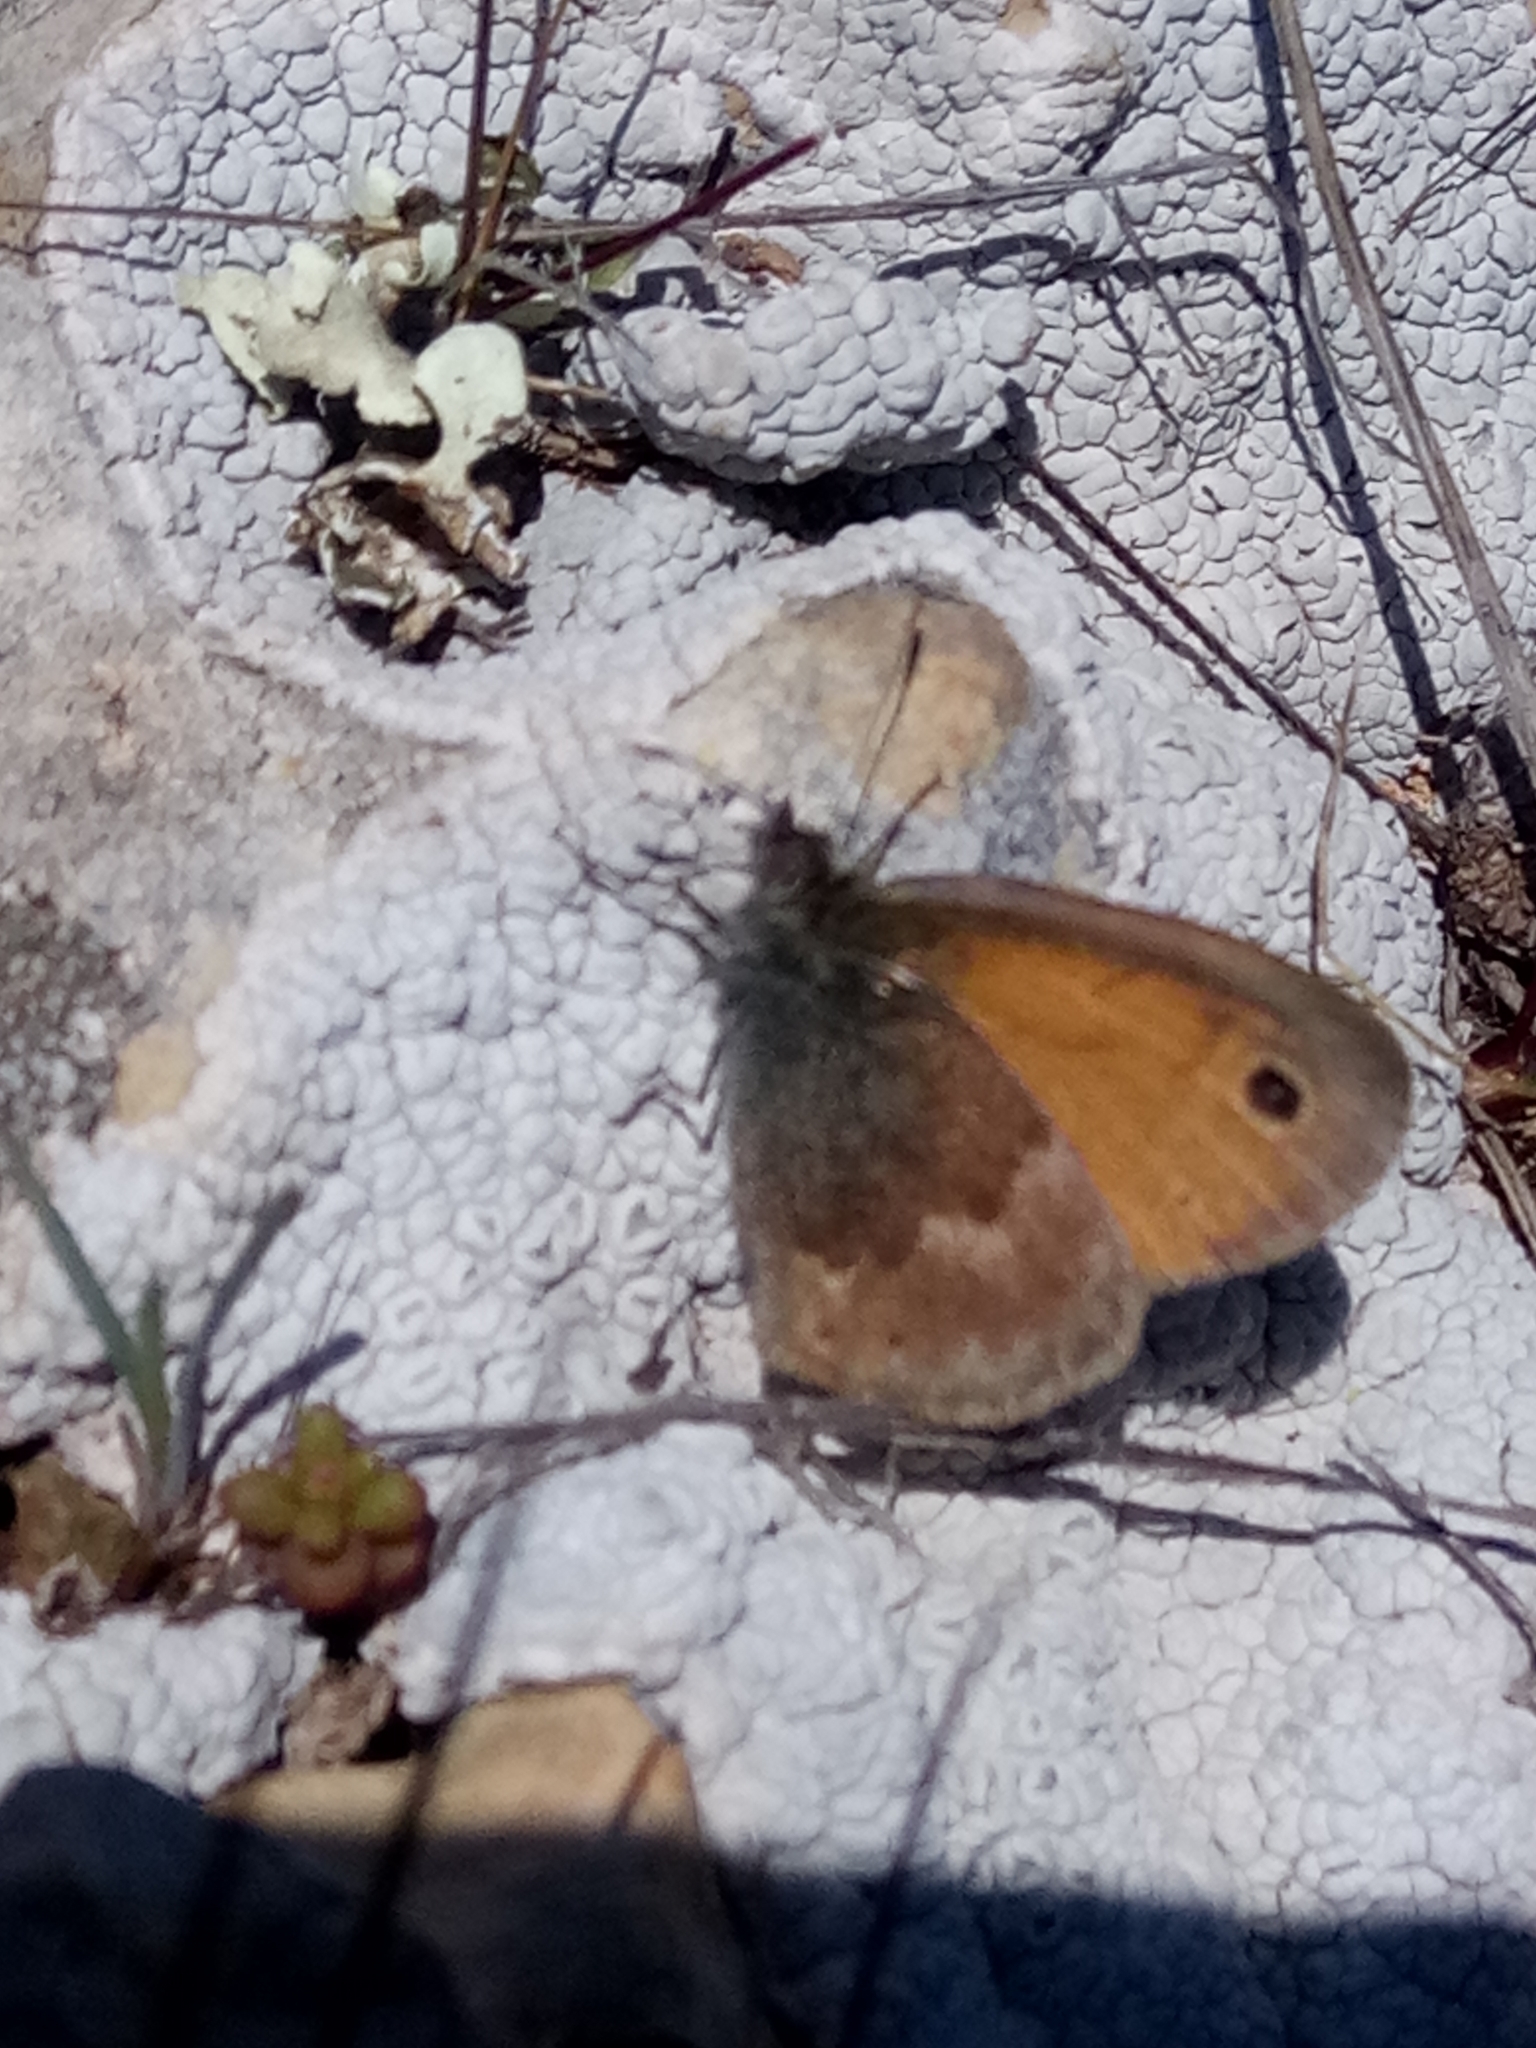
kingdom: Animalia
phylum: Arthropoda
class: Insecta
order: Lepidoptera
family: Nymphalidae
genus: Coenonympha
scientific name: Coenonympha pamphilus
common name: Small heath
